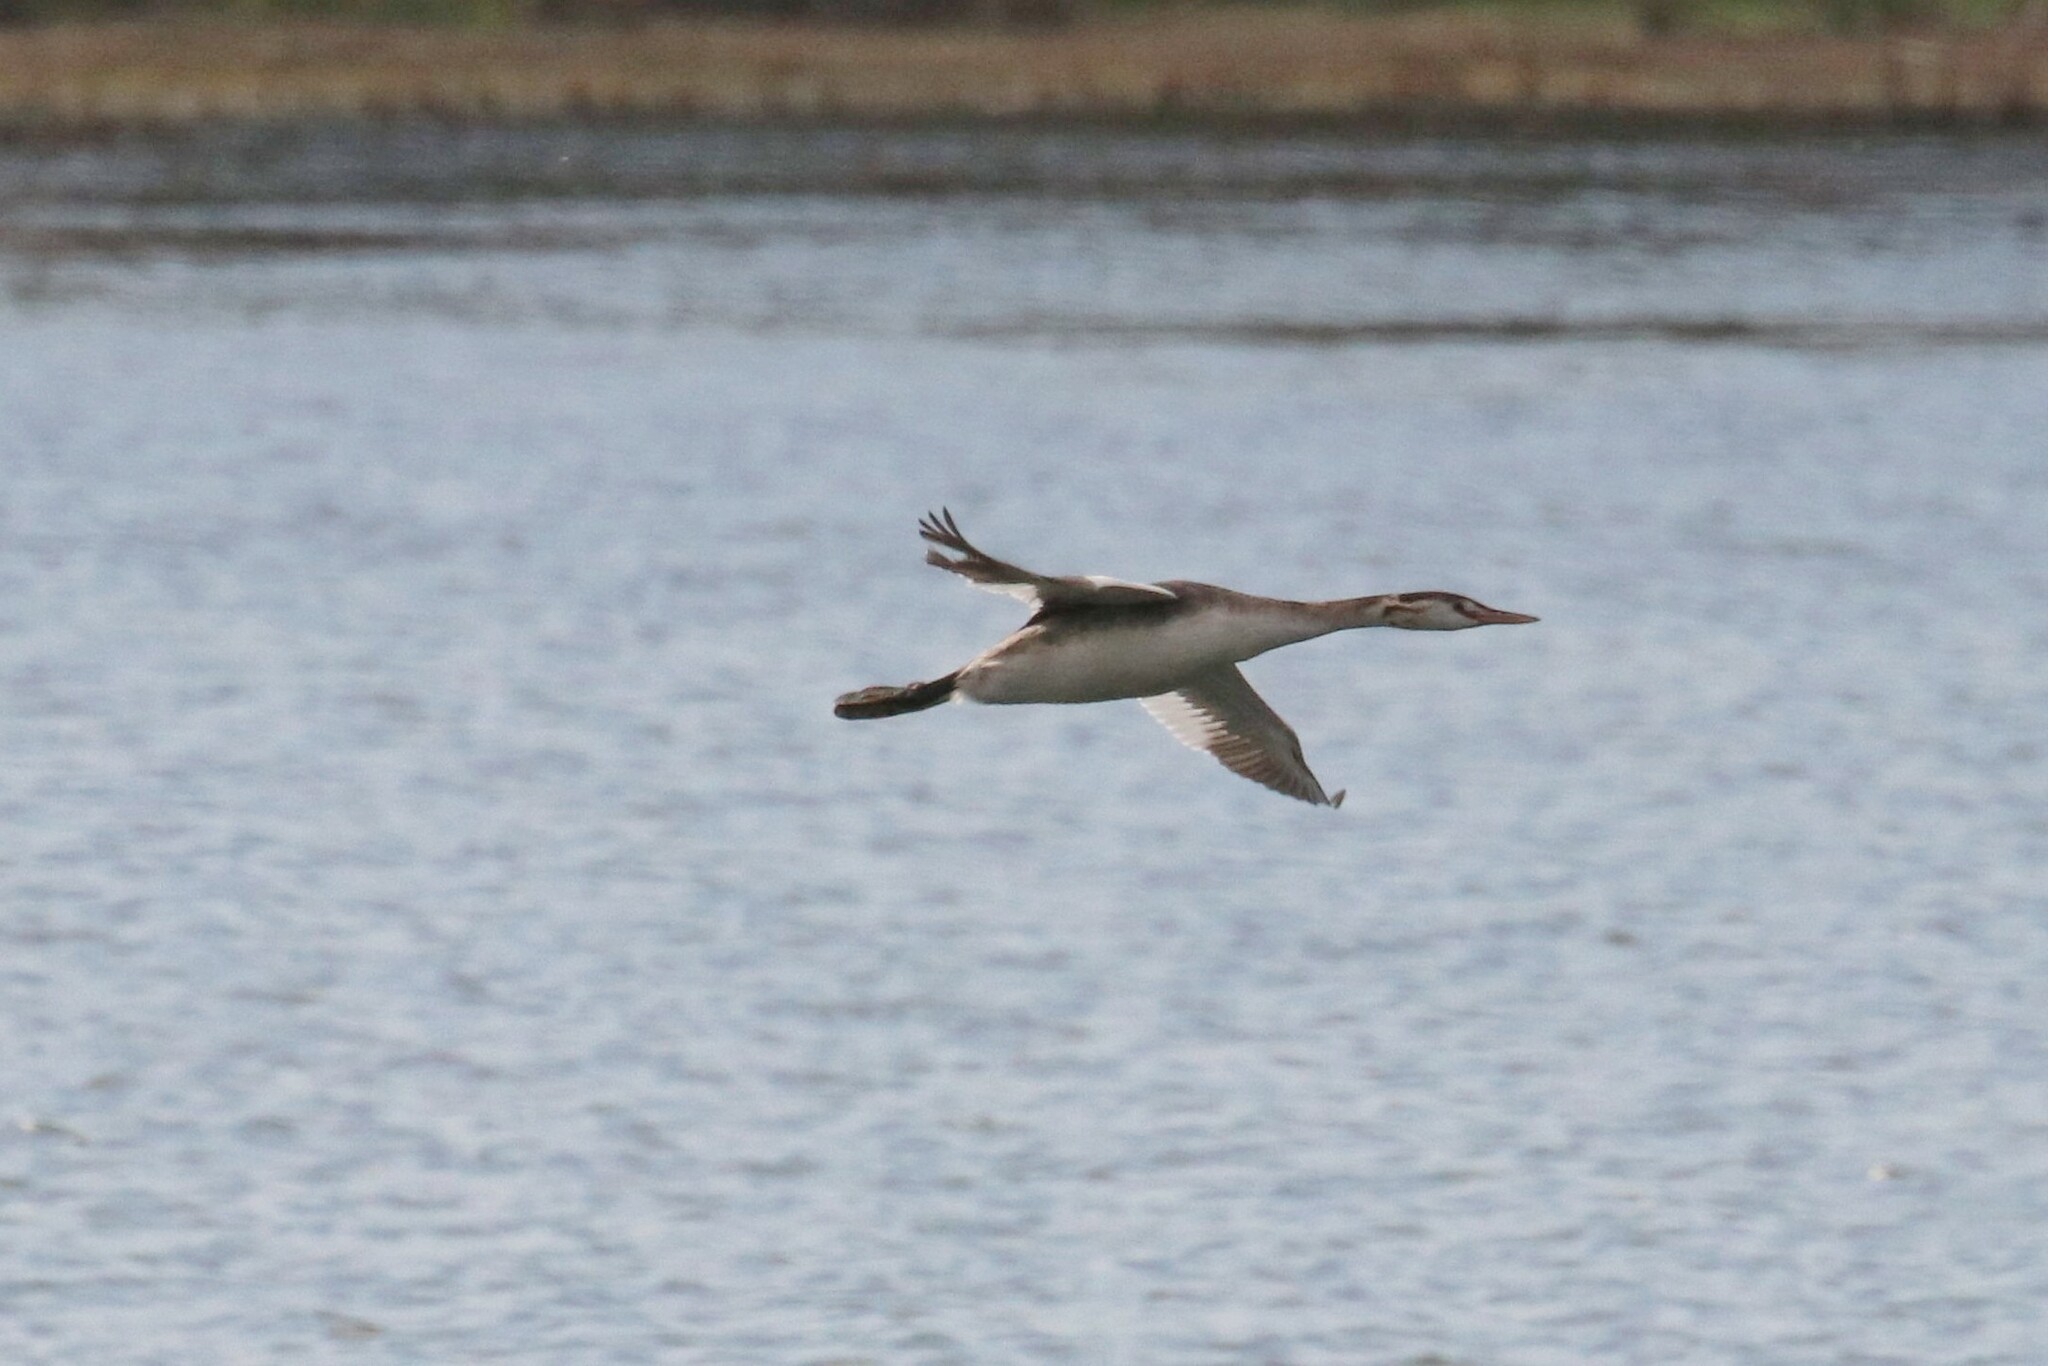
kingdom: Animalia
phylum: Chordata
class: Aves
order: Podicipediformes
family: Podicipedidae
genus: Podiceps
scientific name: Podiceps cristatus
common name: Great crested grebe
